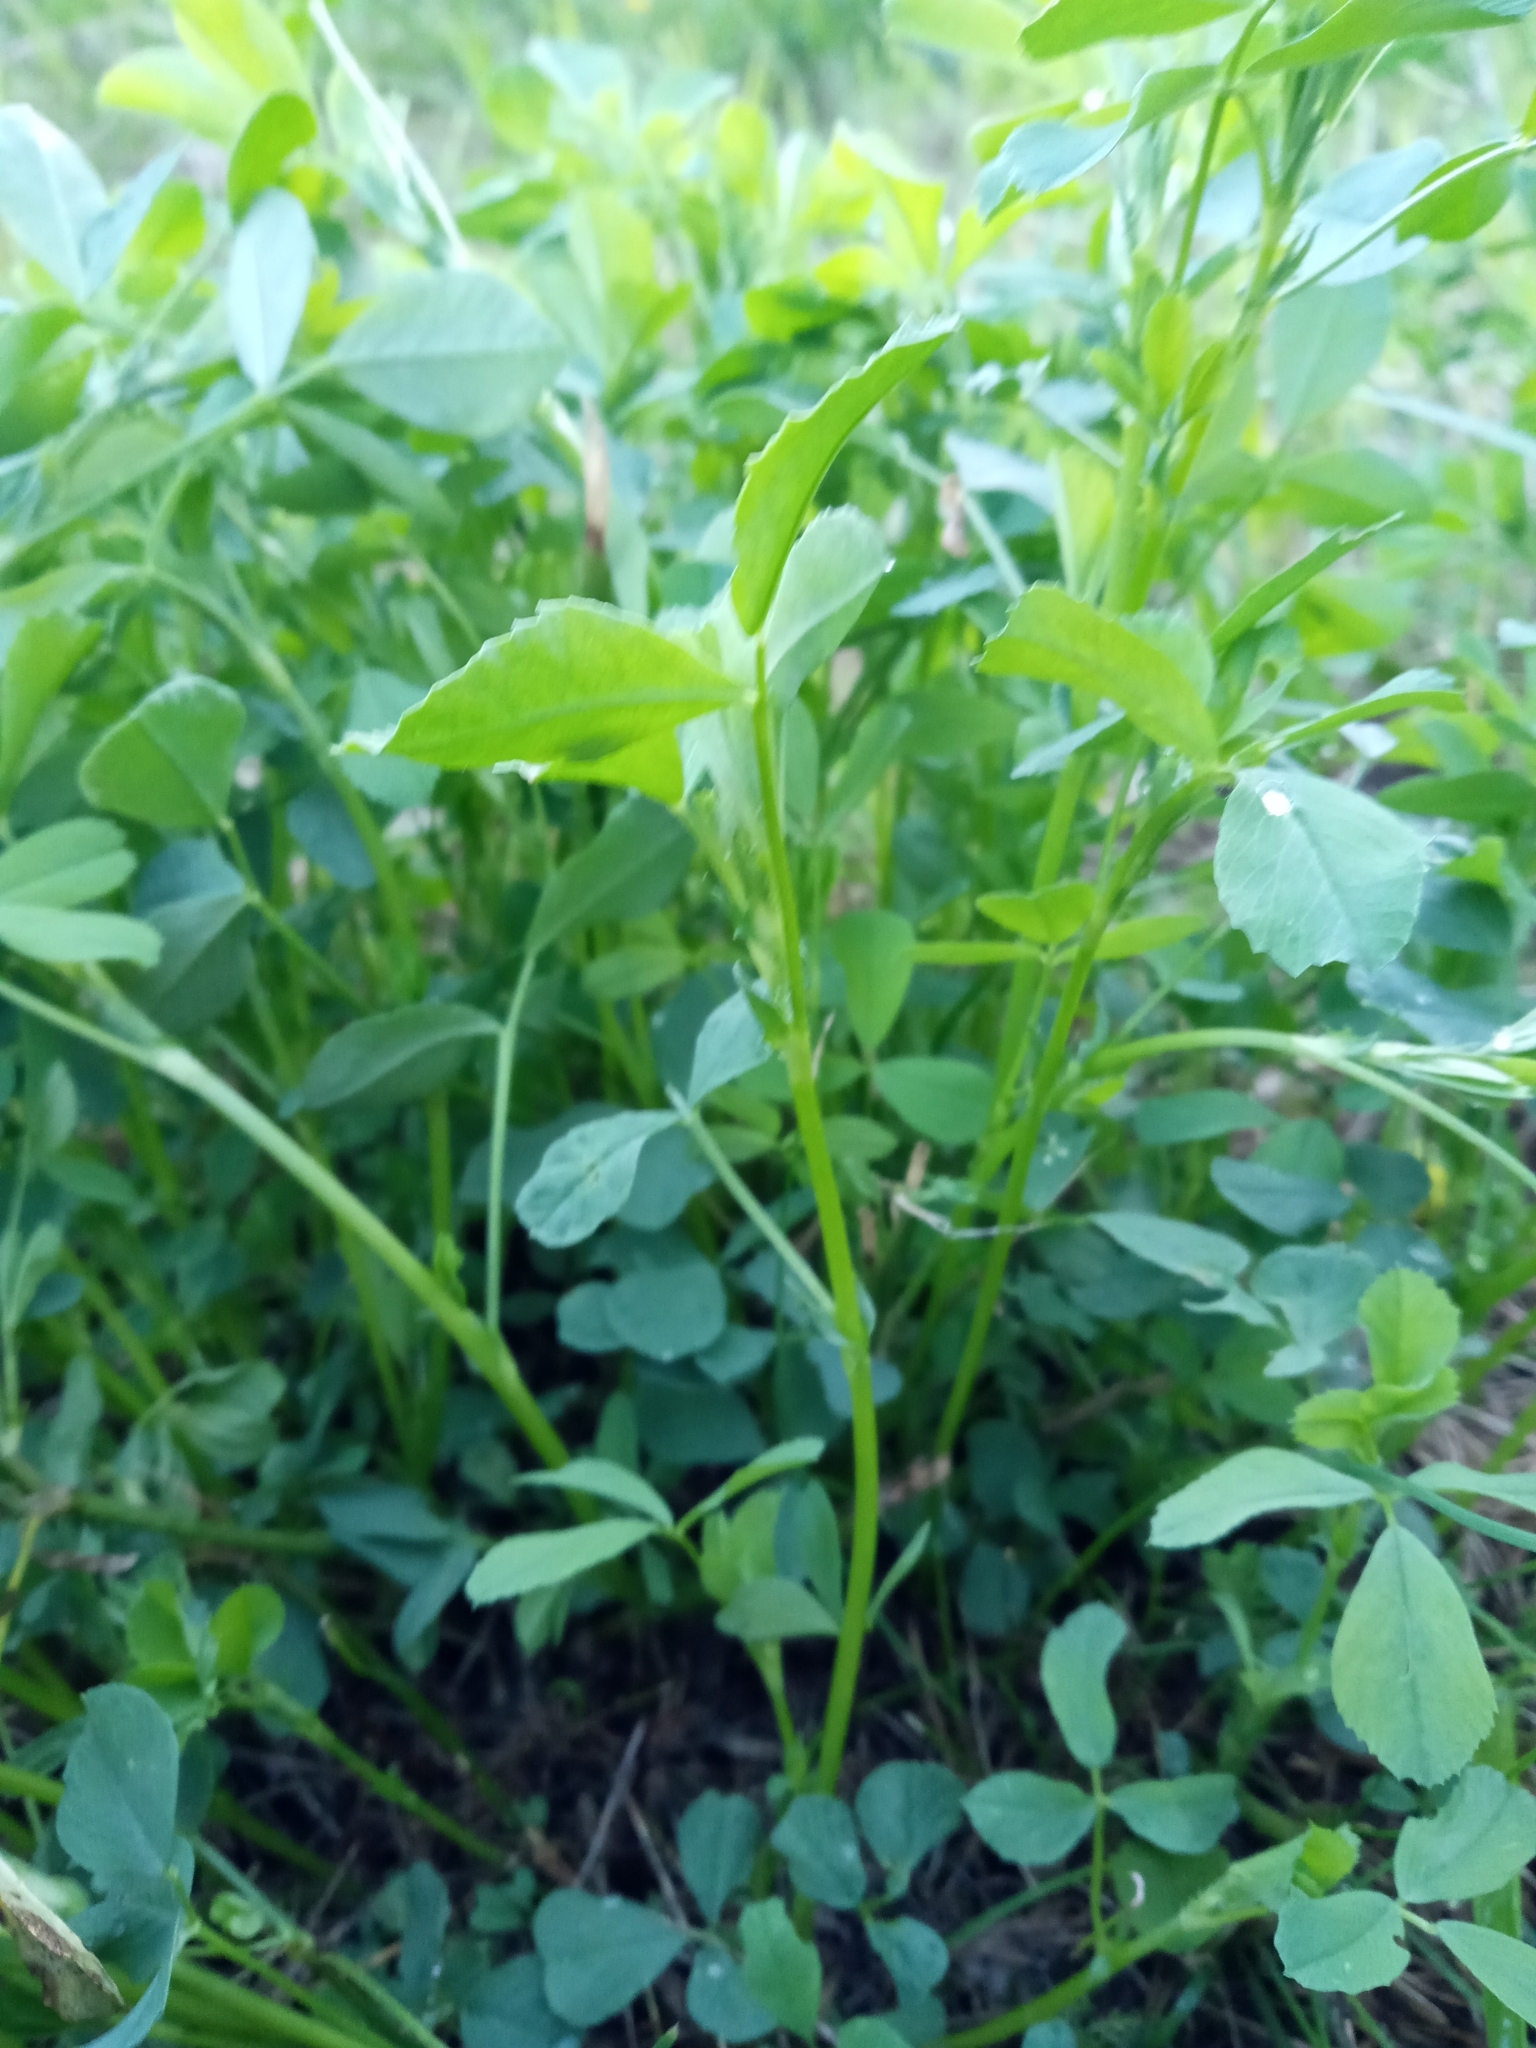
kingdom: Plantae
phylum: Tracheophyta
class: Magnoliopsida
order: Fabales
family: Fabaceae
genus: Medicago
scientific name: Medicago falcata
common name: Sickle medick
